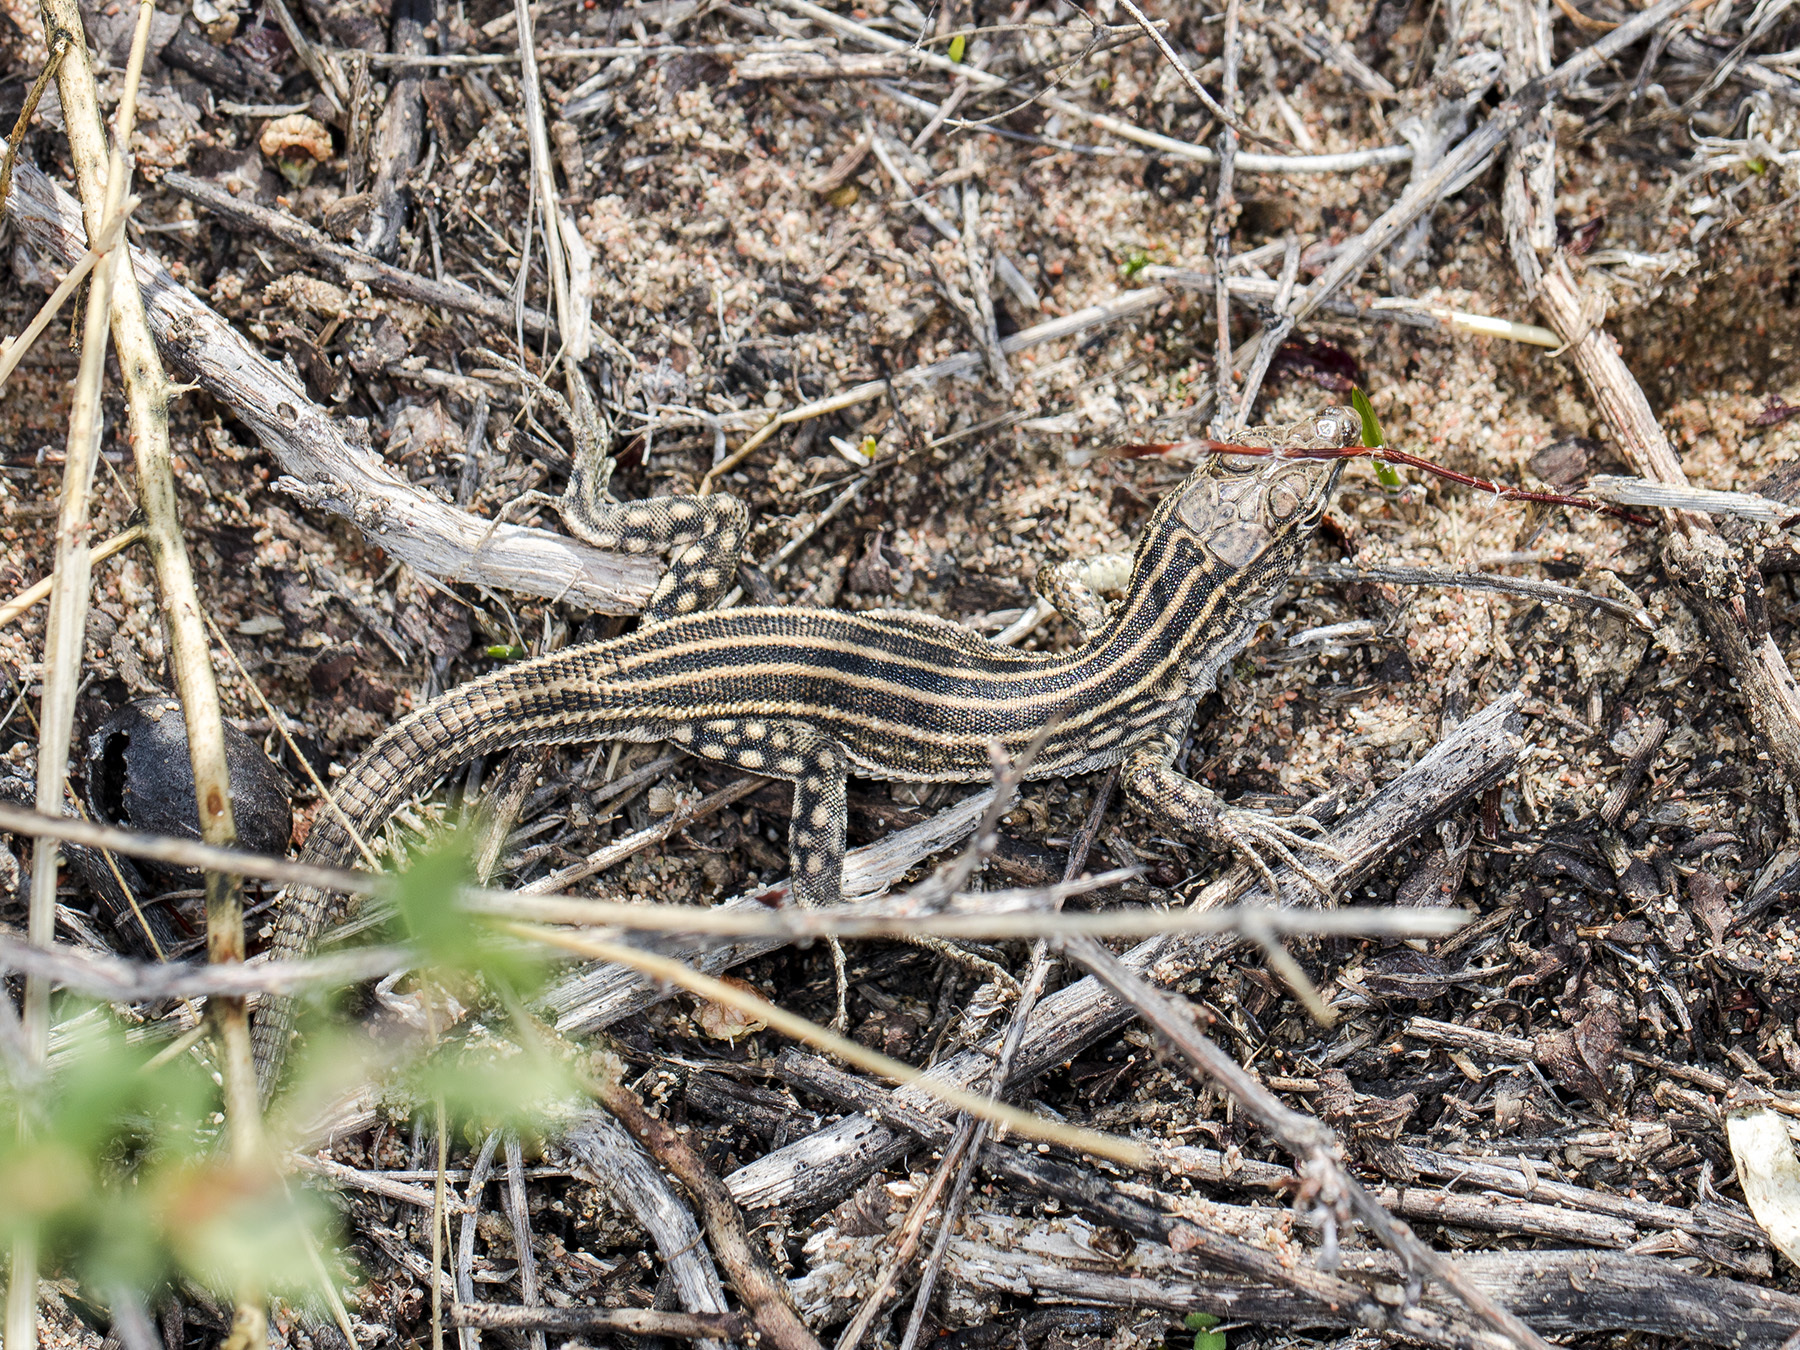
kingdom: Animalia
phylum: Chordata
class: Squamata
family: Lacertidae
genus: Eremias
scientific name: Eremias velox
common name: Central asian racerunner
